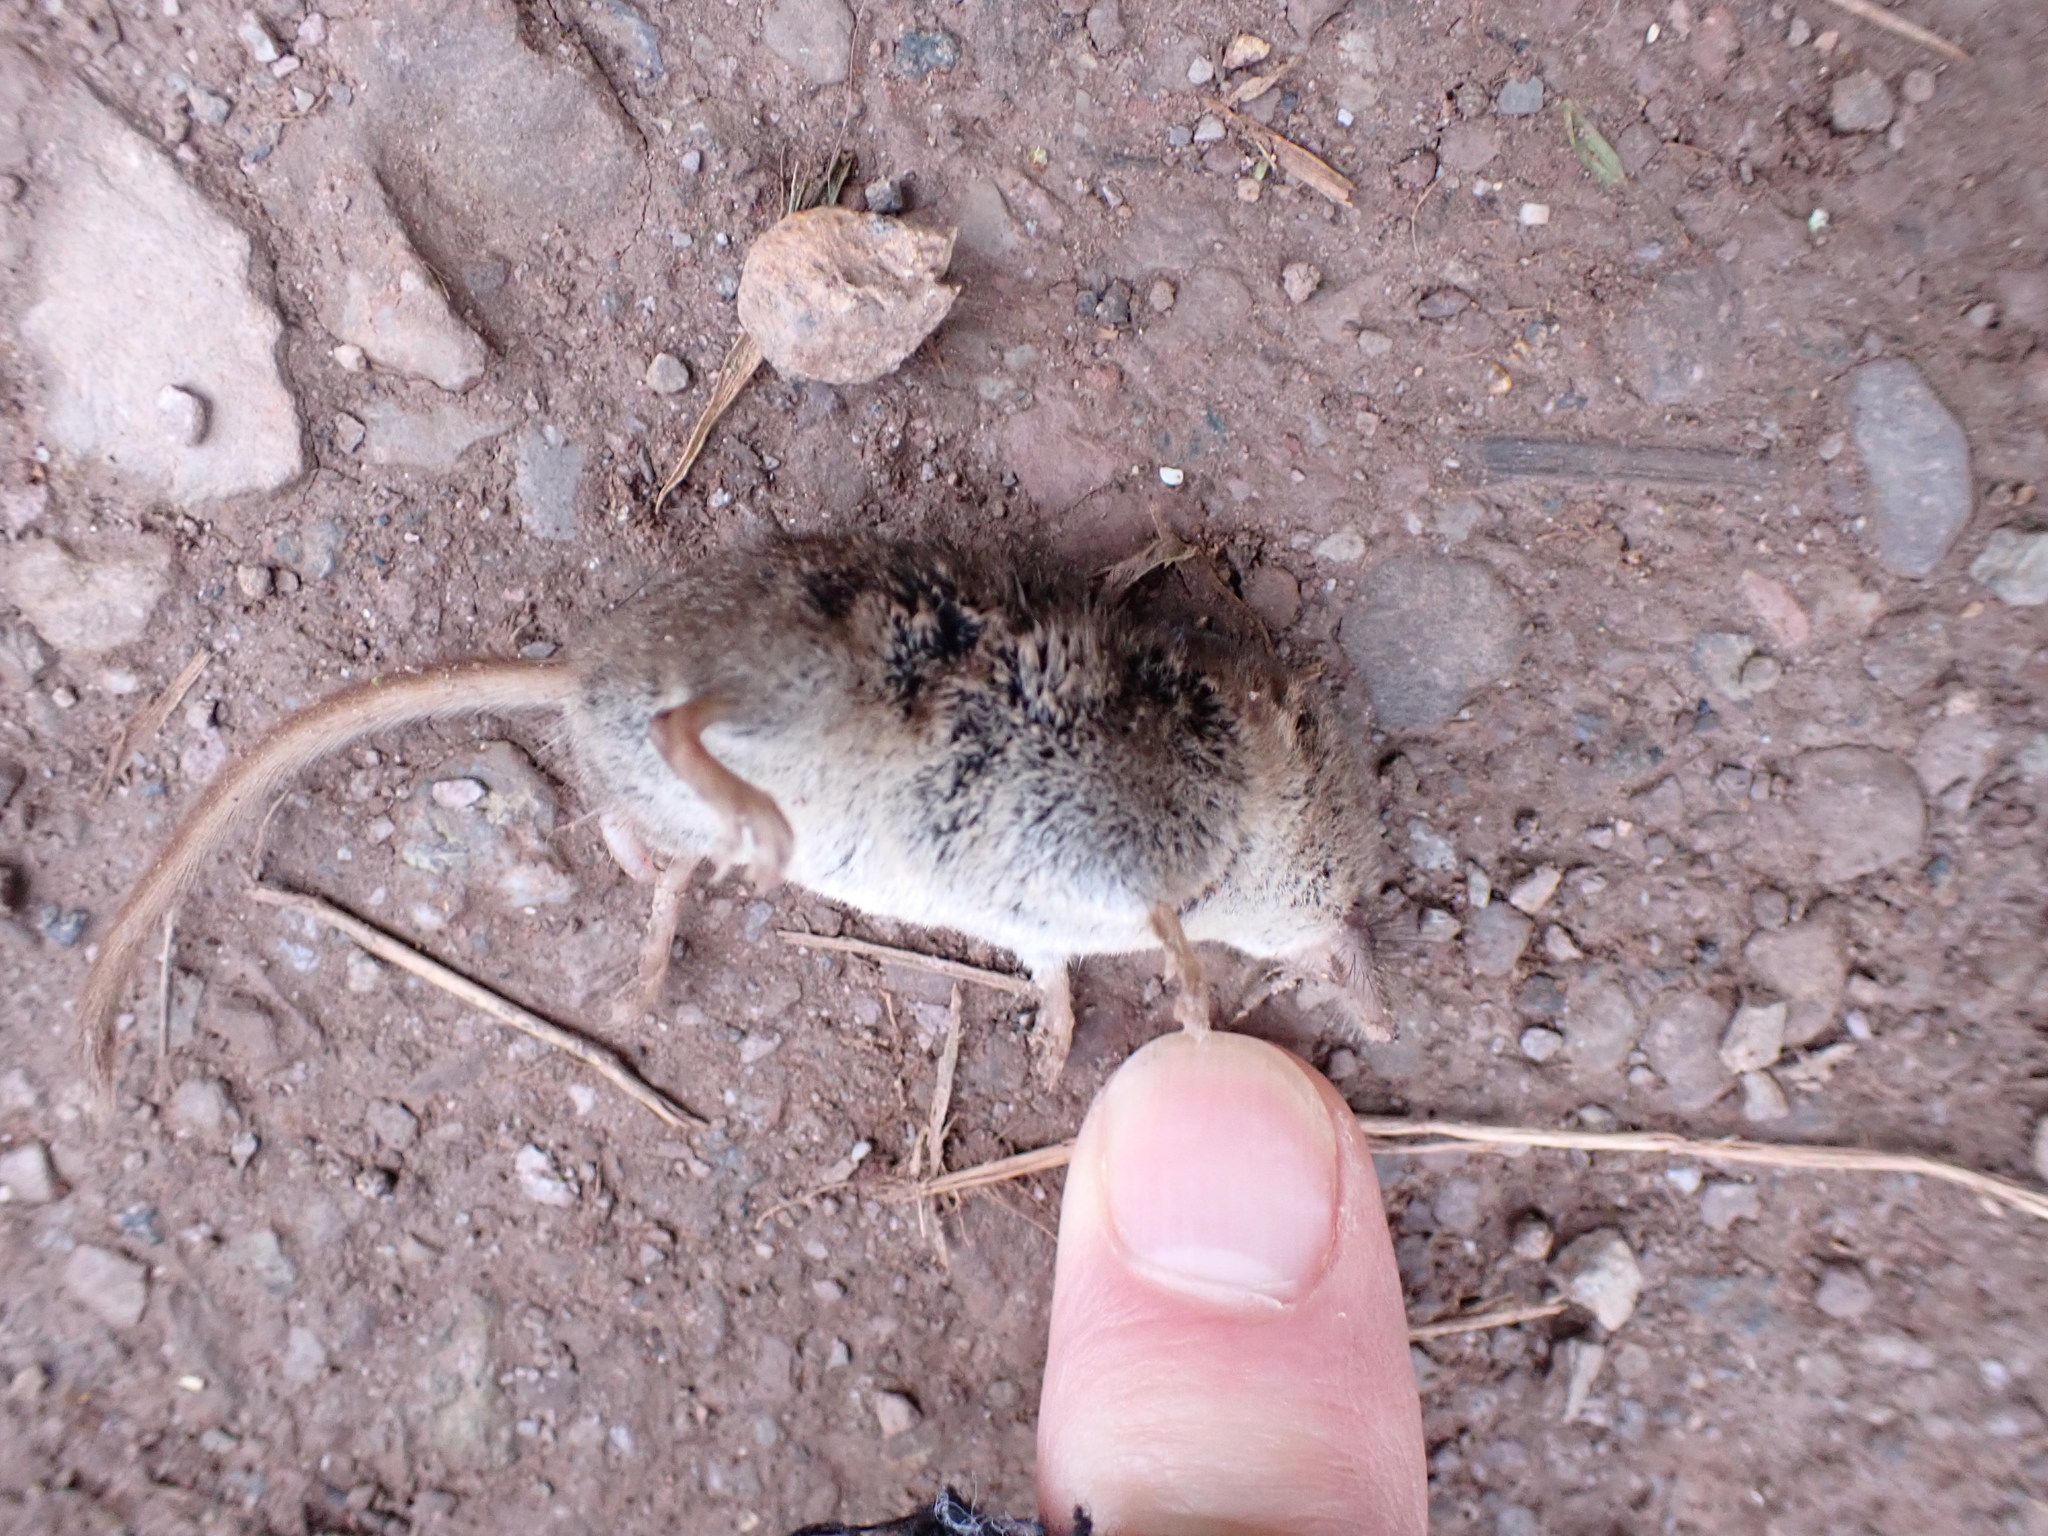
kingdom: Animalia
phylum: Chordata
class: Mammalia
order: Soricomorpha
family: Soricidae
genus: Sorex
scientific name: Sorex araneus
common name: Common shrew
